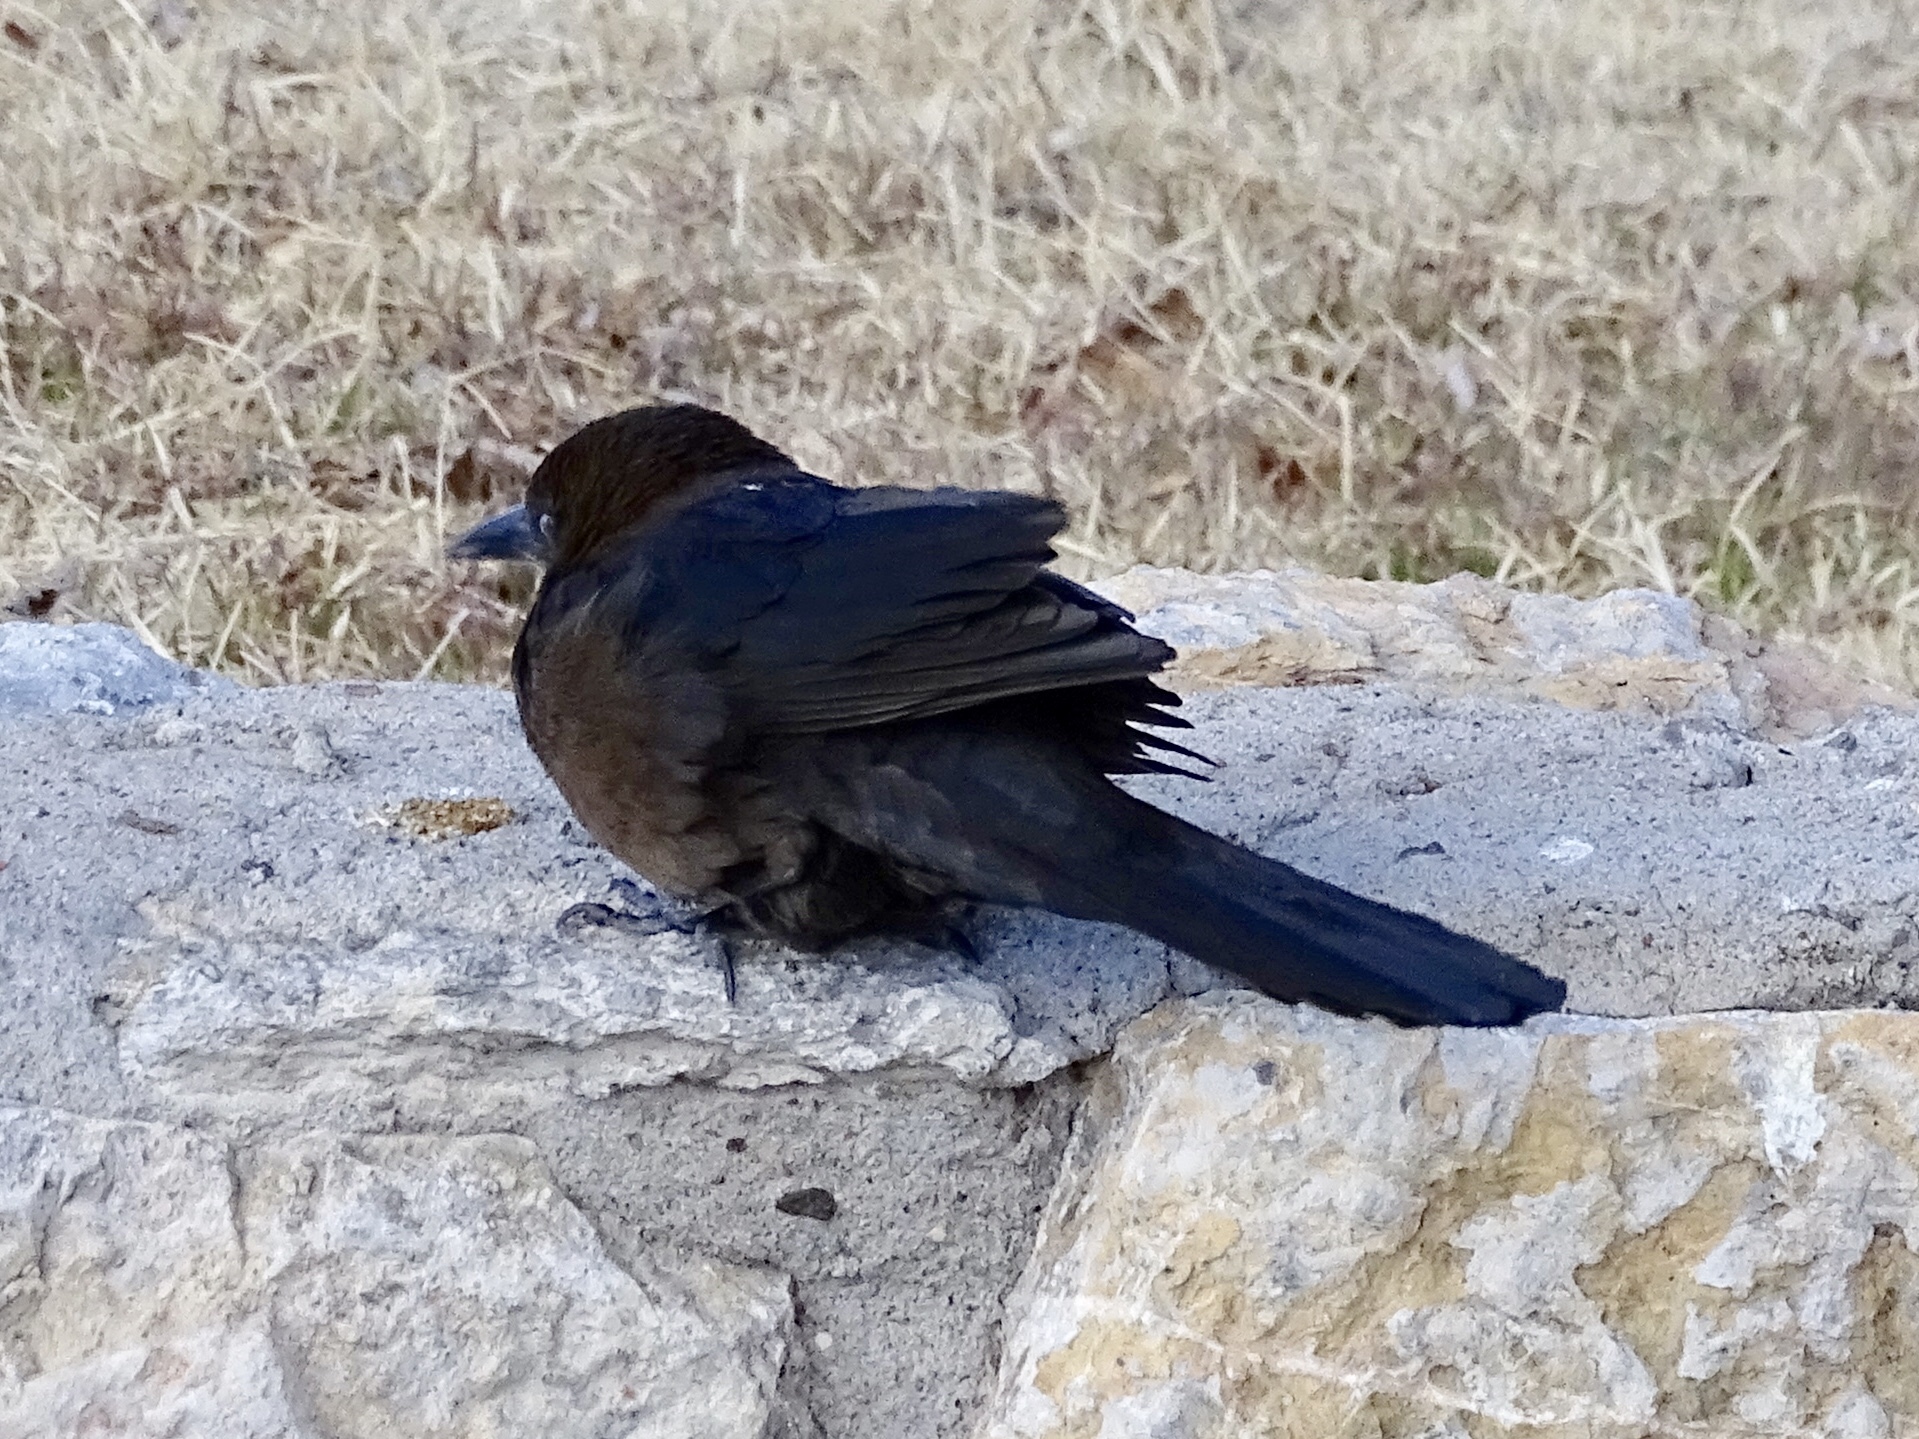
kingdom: Animalia
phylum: Chordata
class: Aves
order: Passeriformes
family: Icteridae
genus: Quiscalus
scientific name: Quiscalus mexicanus
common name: Great-tailed grackle
